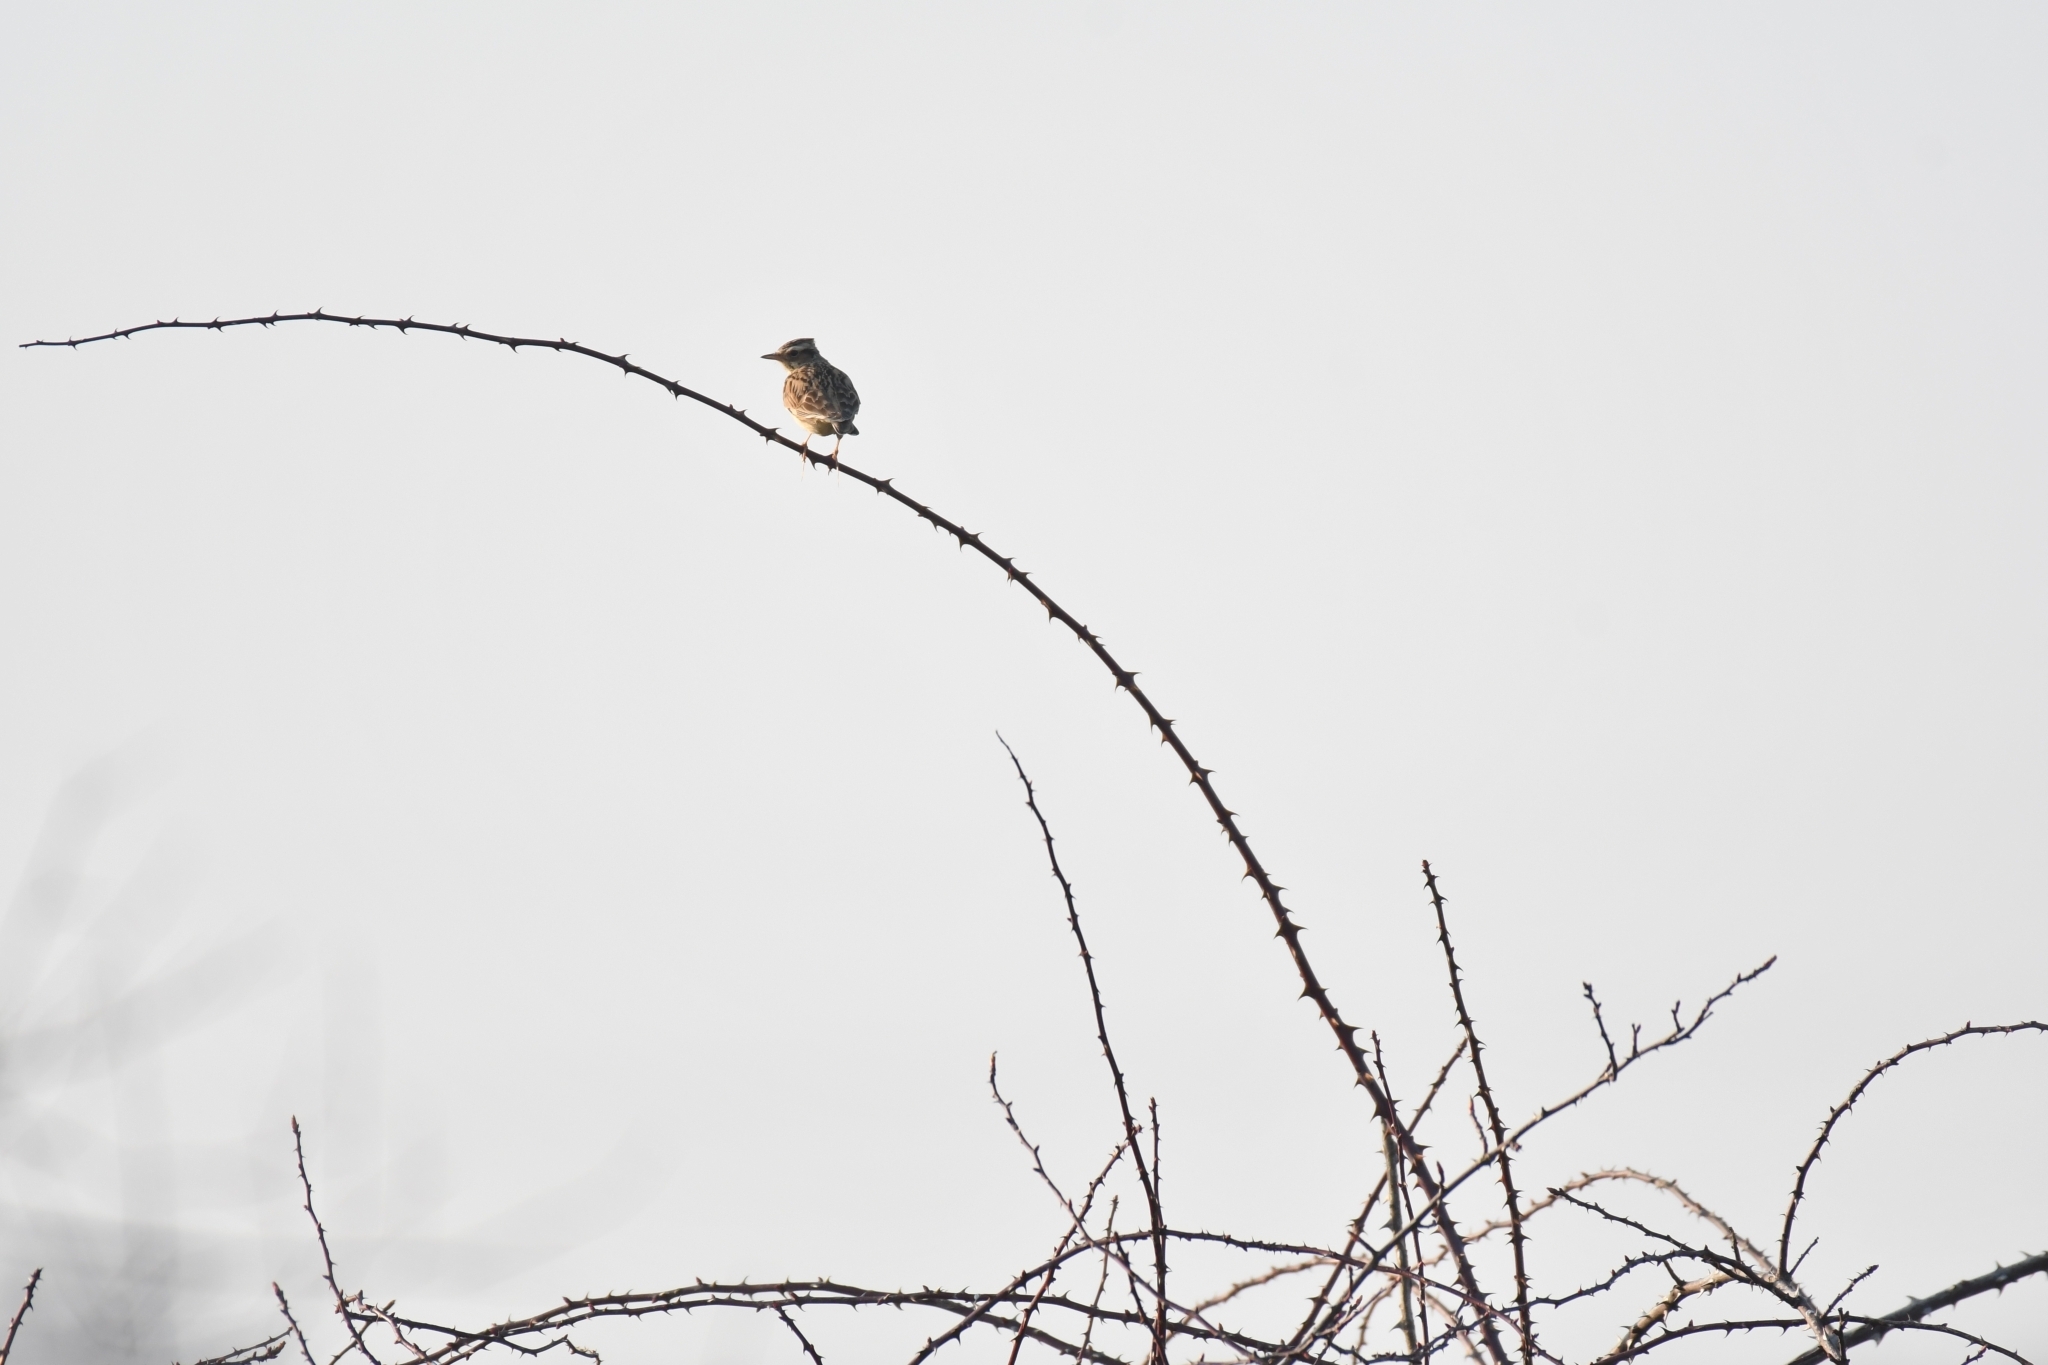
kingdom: Animalia
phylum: Chordata
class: Aves
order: Passeriformes
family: Alaudidae
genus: Lullula
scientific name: Lullula arborea
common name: Woodlark
